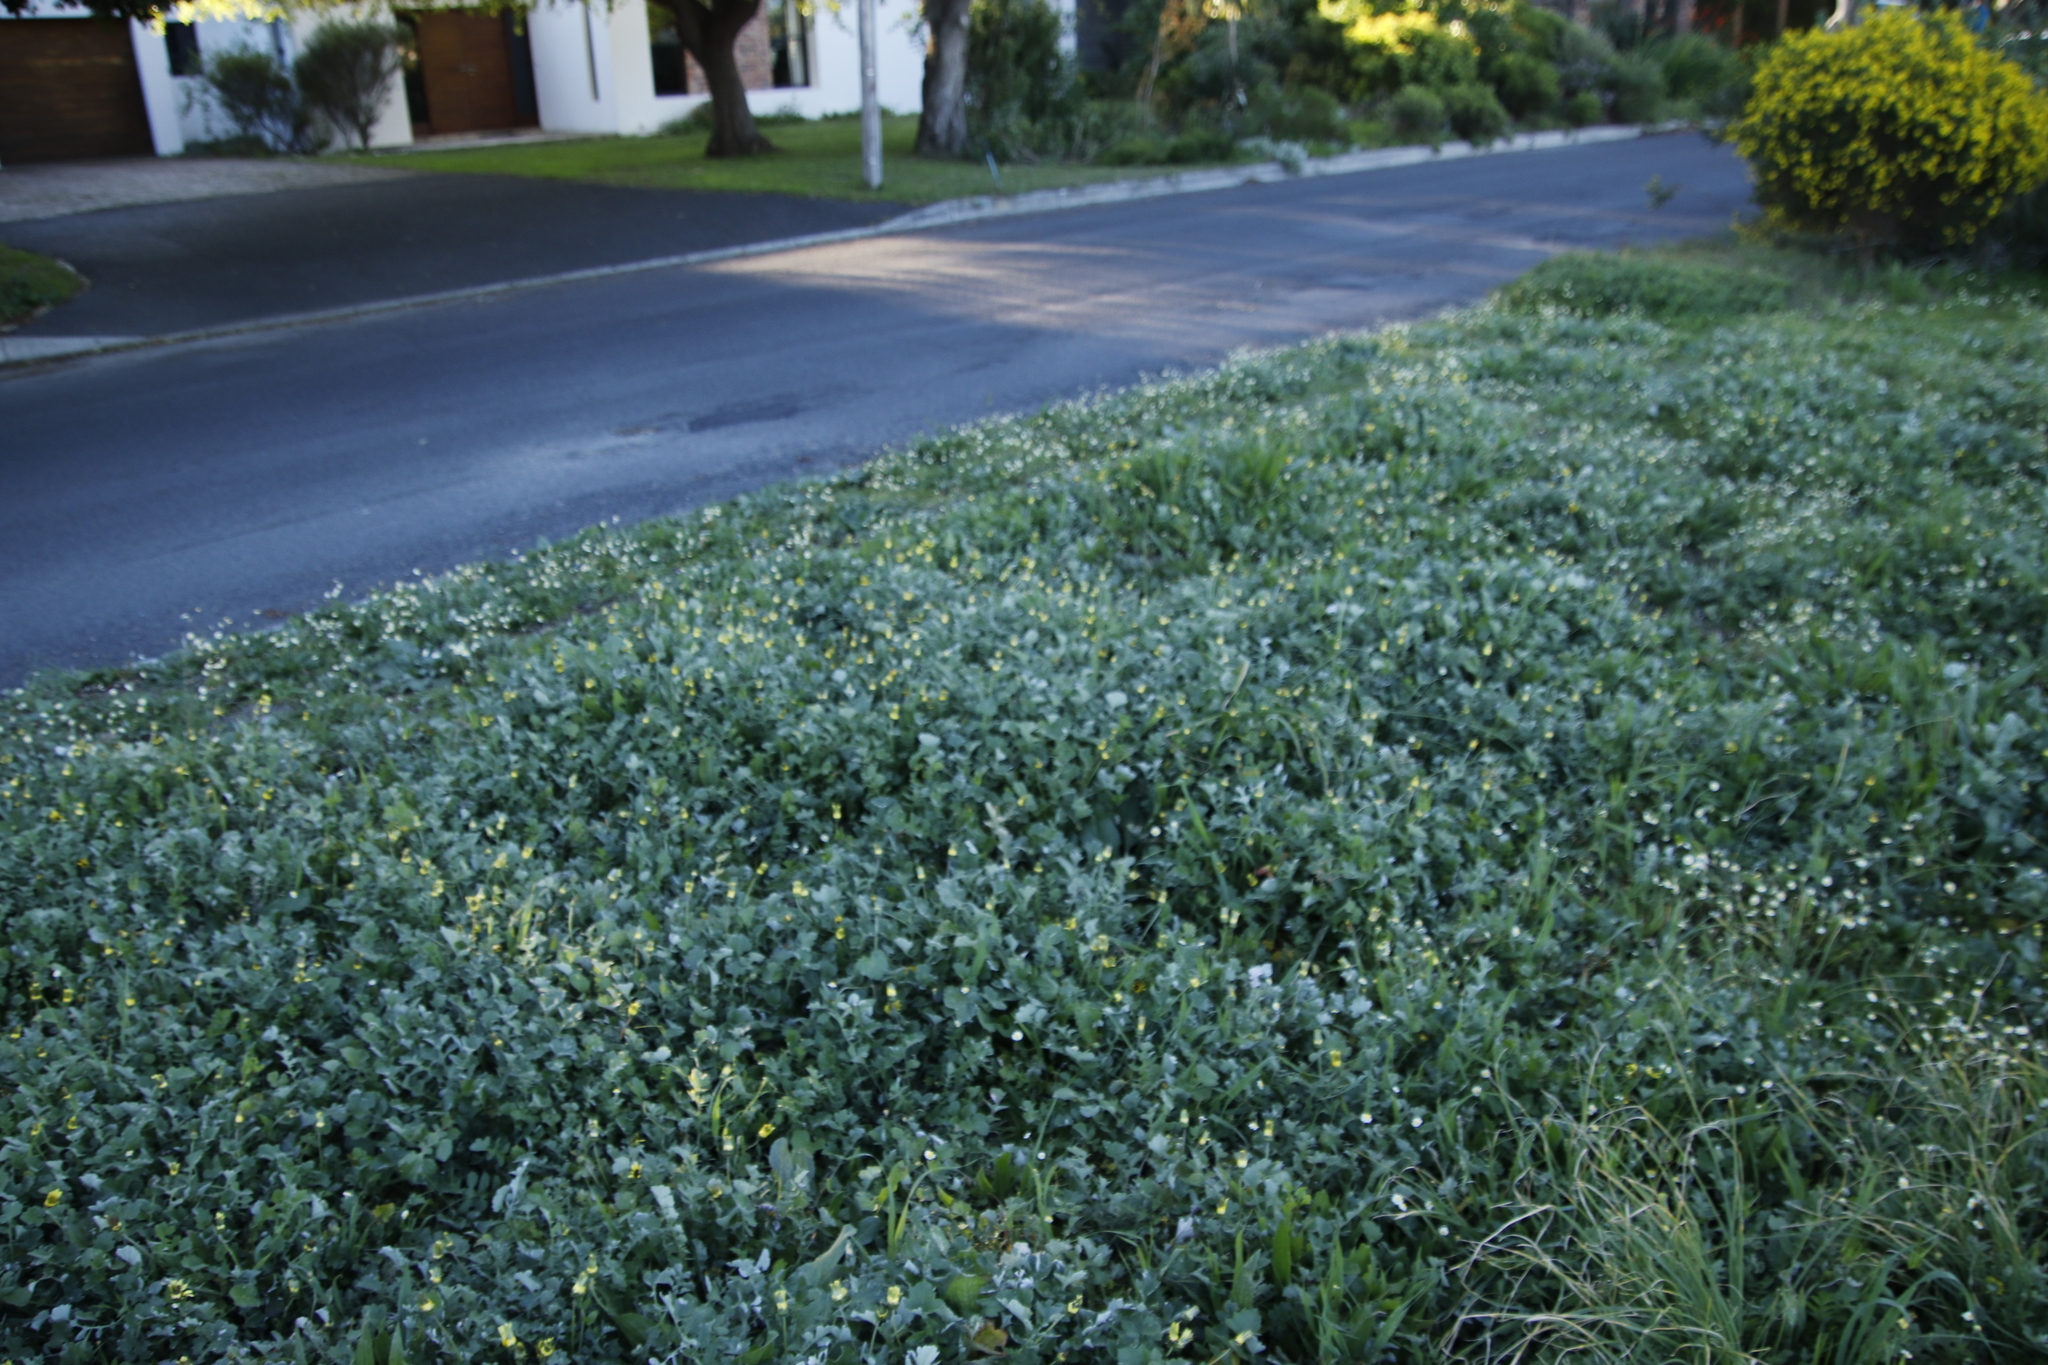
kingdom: Plantae
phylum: Tracheophyta
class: Magnoliopsida
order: Asterales
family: Asteraceae
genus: Arctotheca
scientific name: Arctotheca calendula
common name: Capeweed
